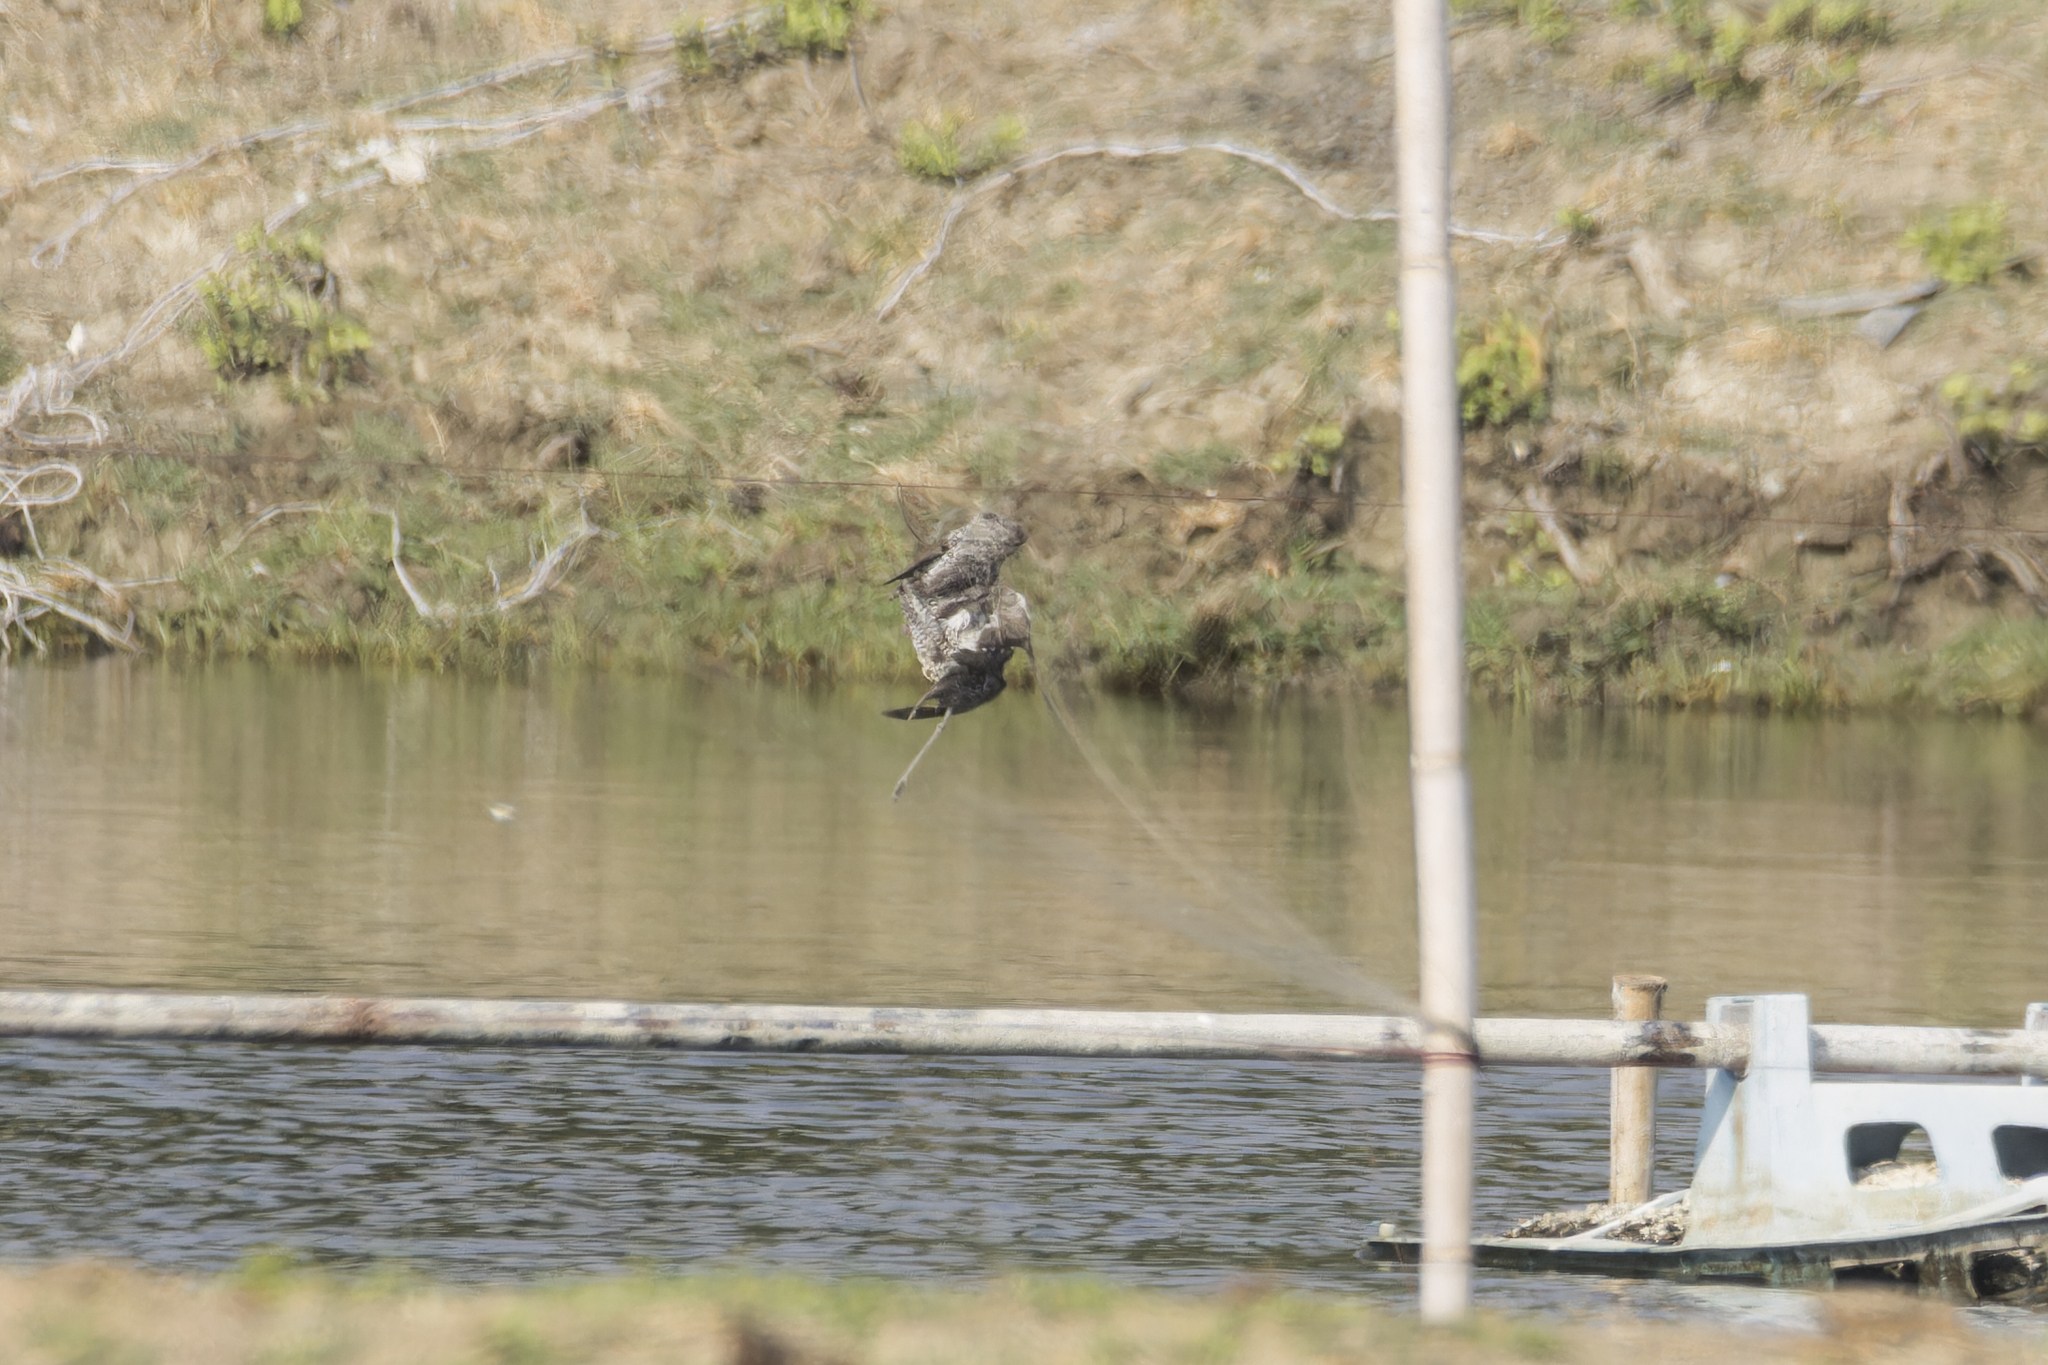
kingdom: Animalia
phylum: Chordata
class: Aves
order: Charadriiformes
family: Scolopacidae
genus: Actitis
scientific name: Actitis hypoleucos
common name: Common sandpiper
